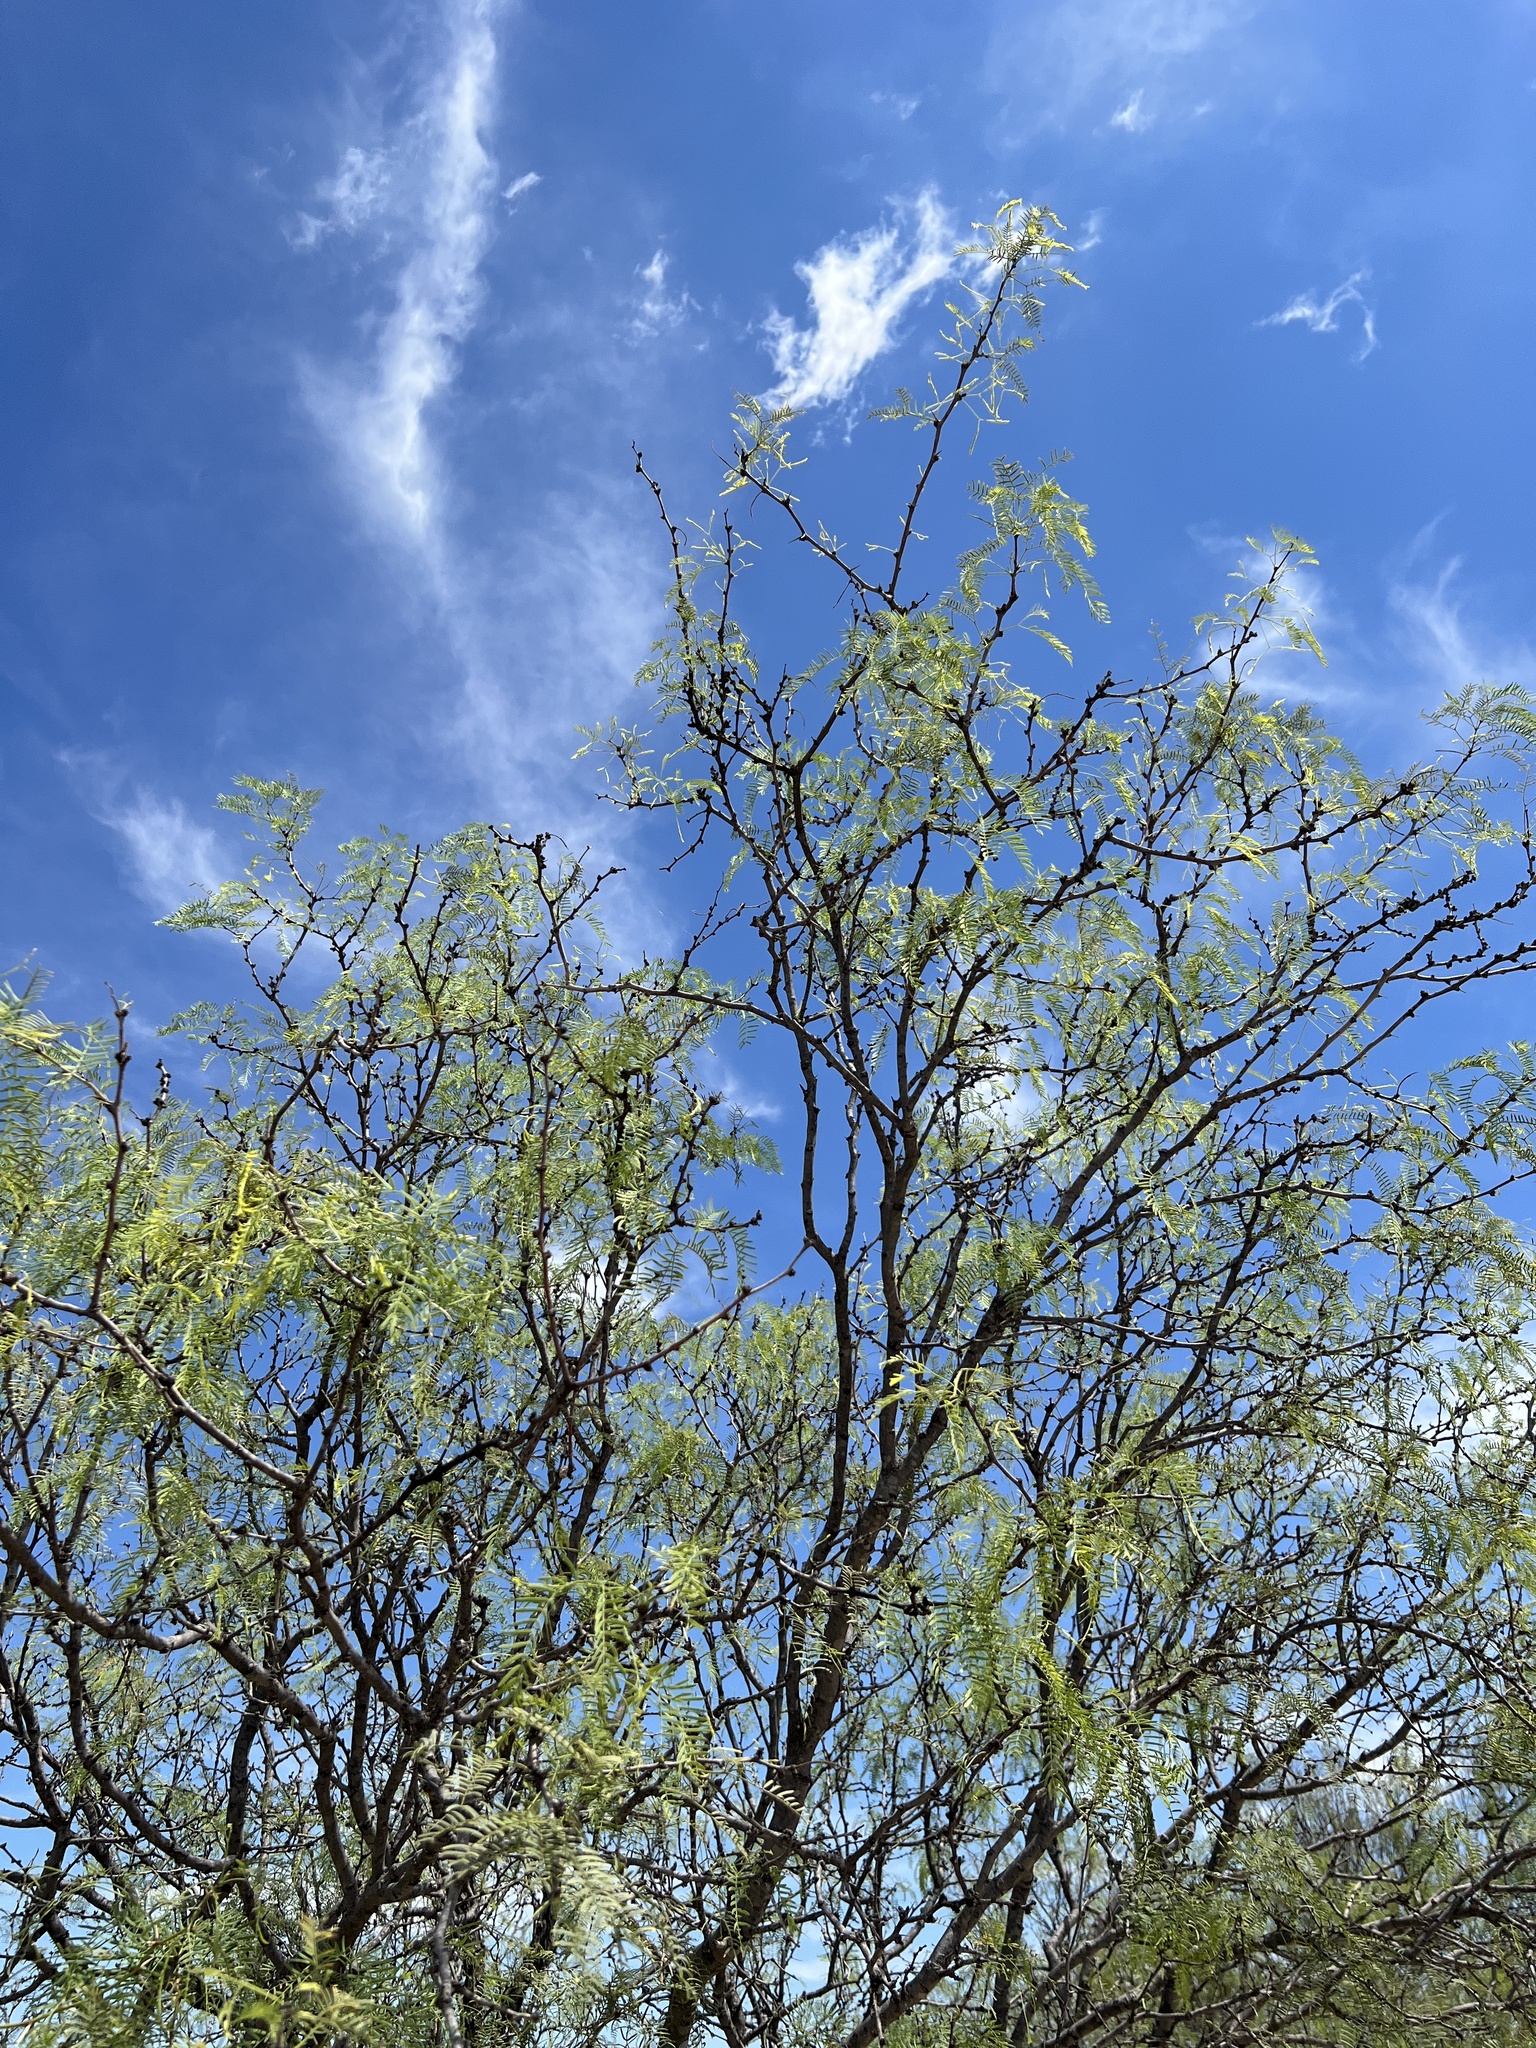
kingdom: Plantae
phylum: Tracheophyta
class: Magnoliopsida
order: Fabales
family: Fabaceae
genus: Prosopis
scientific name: Prosopis glandulosa
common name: Honey mesquite
